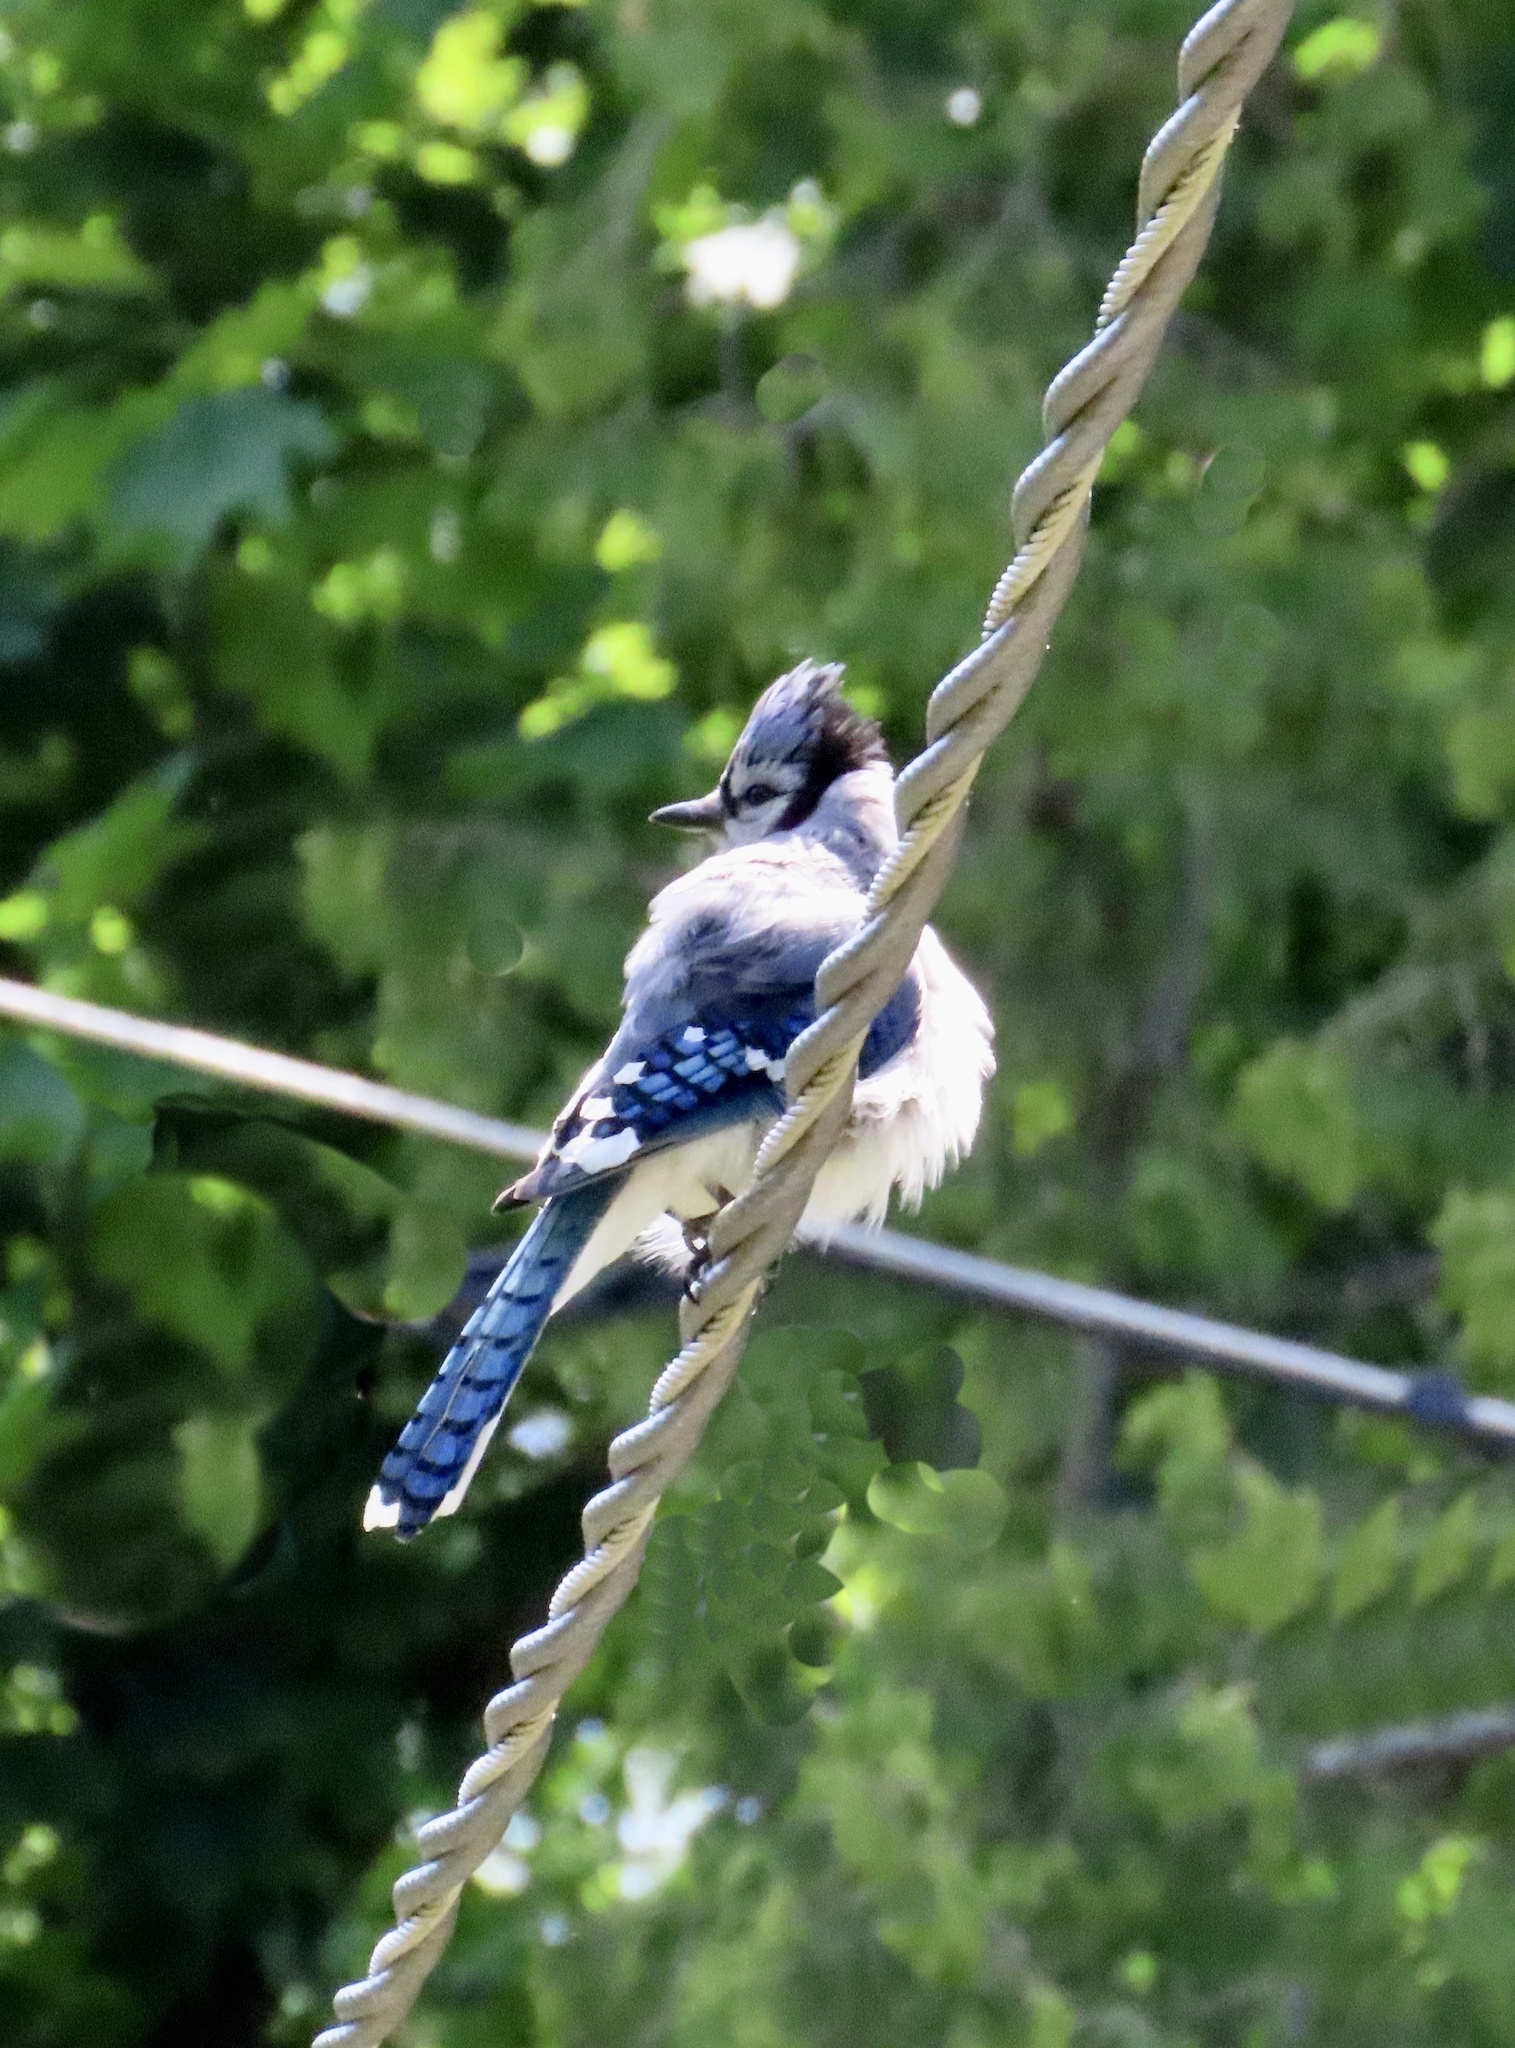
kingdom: Animalia
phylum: Chordata
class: Aves
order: Passeriformes
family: Corvidae
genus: Cyanocitta
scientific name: Cyanocitta cristata
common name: Blue jay
